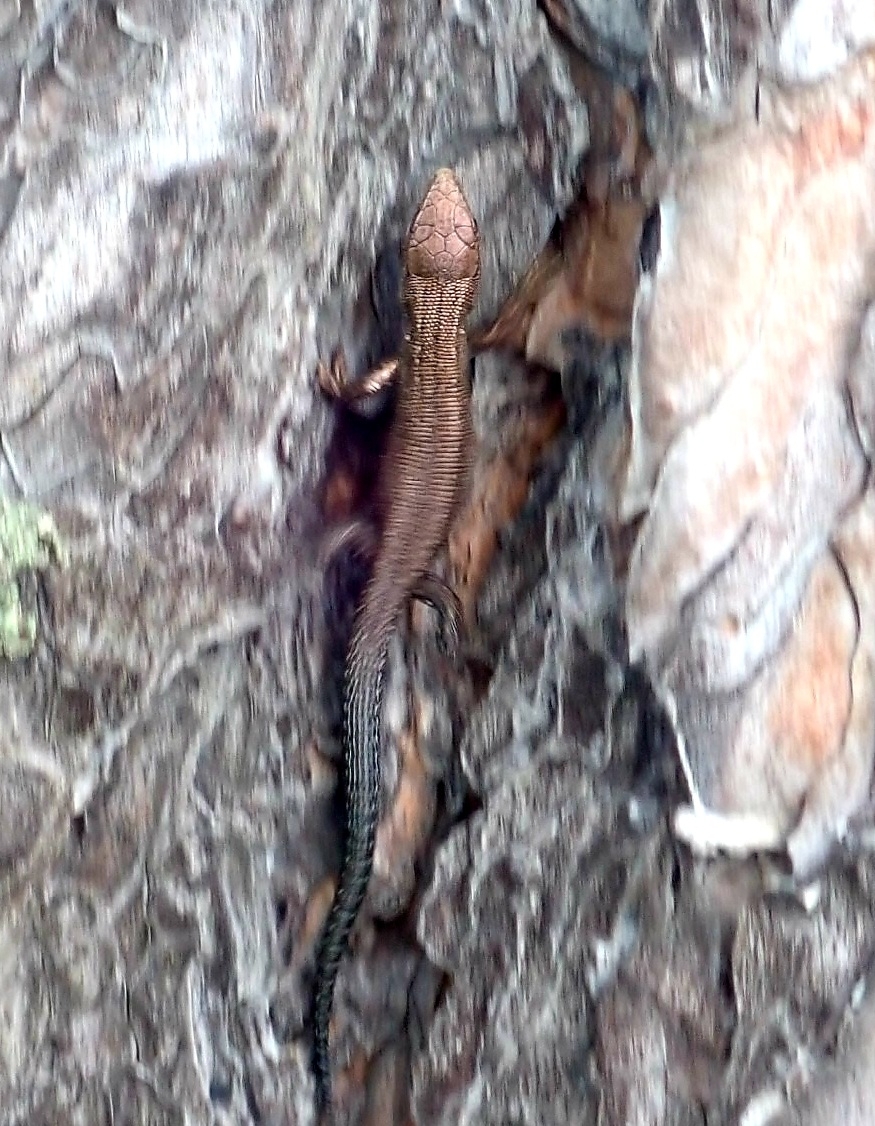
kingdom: Animalia
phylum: Chordata
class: Squamata
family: Lacertidae
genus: Zootoca
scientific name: Zootoca vivipara
